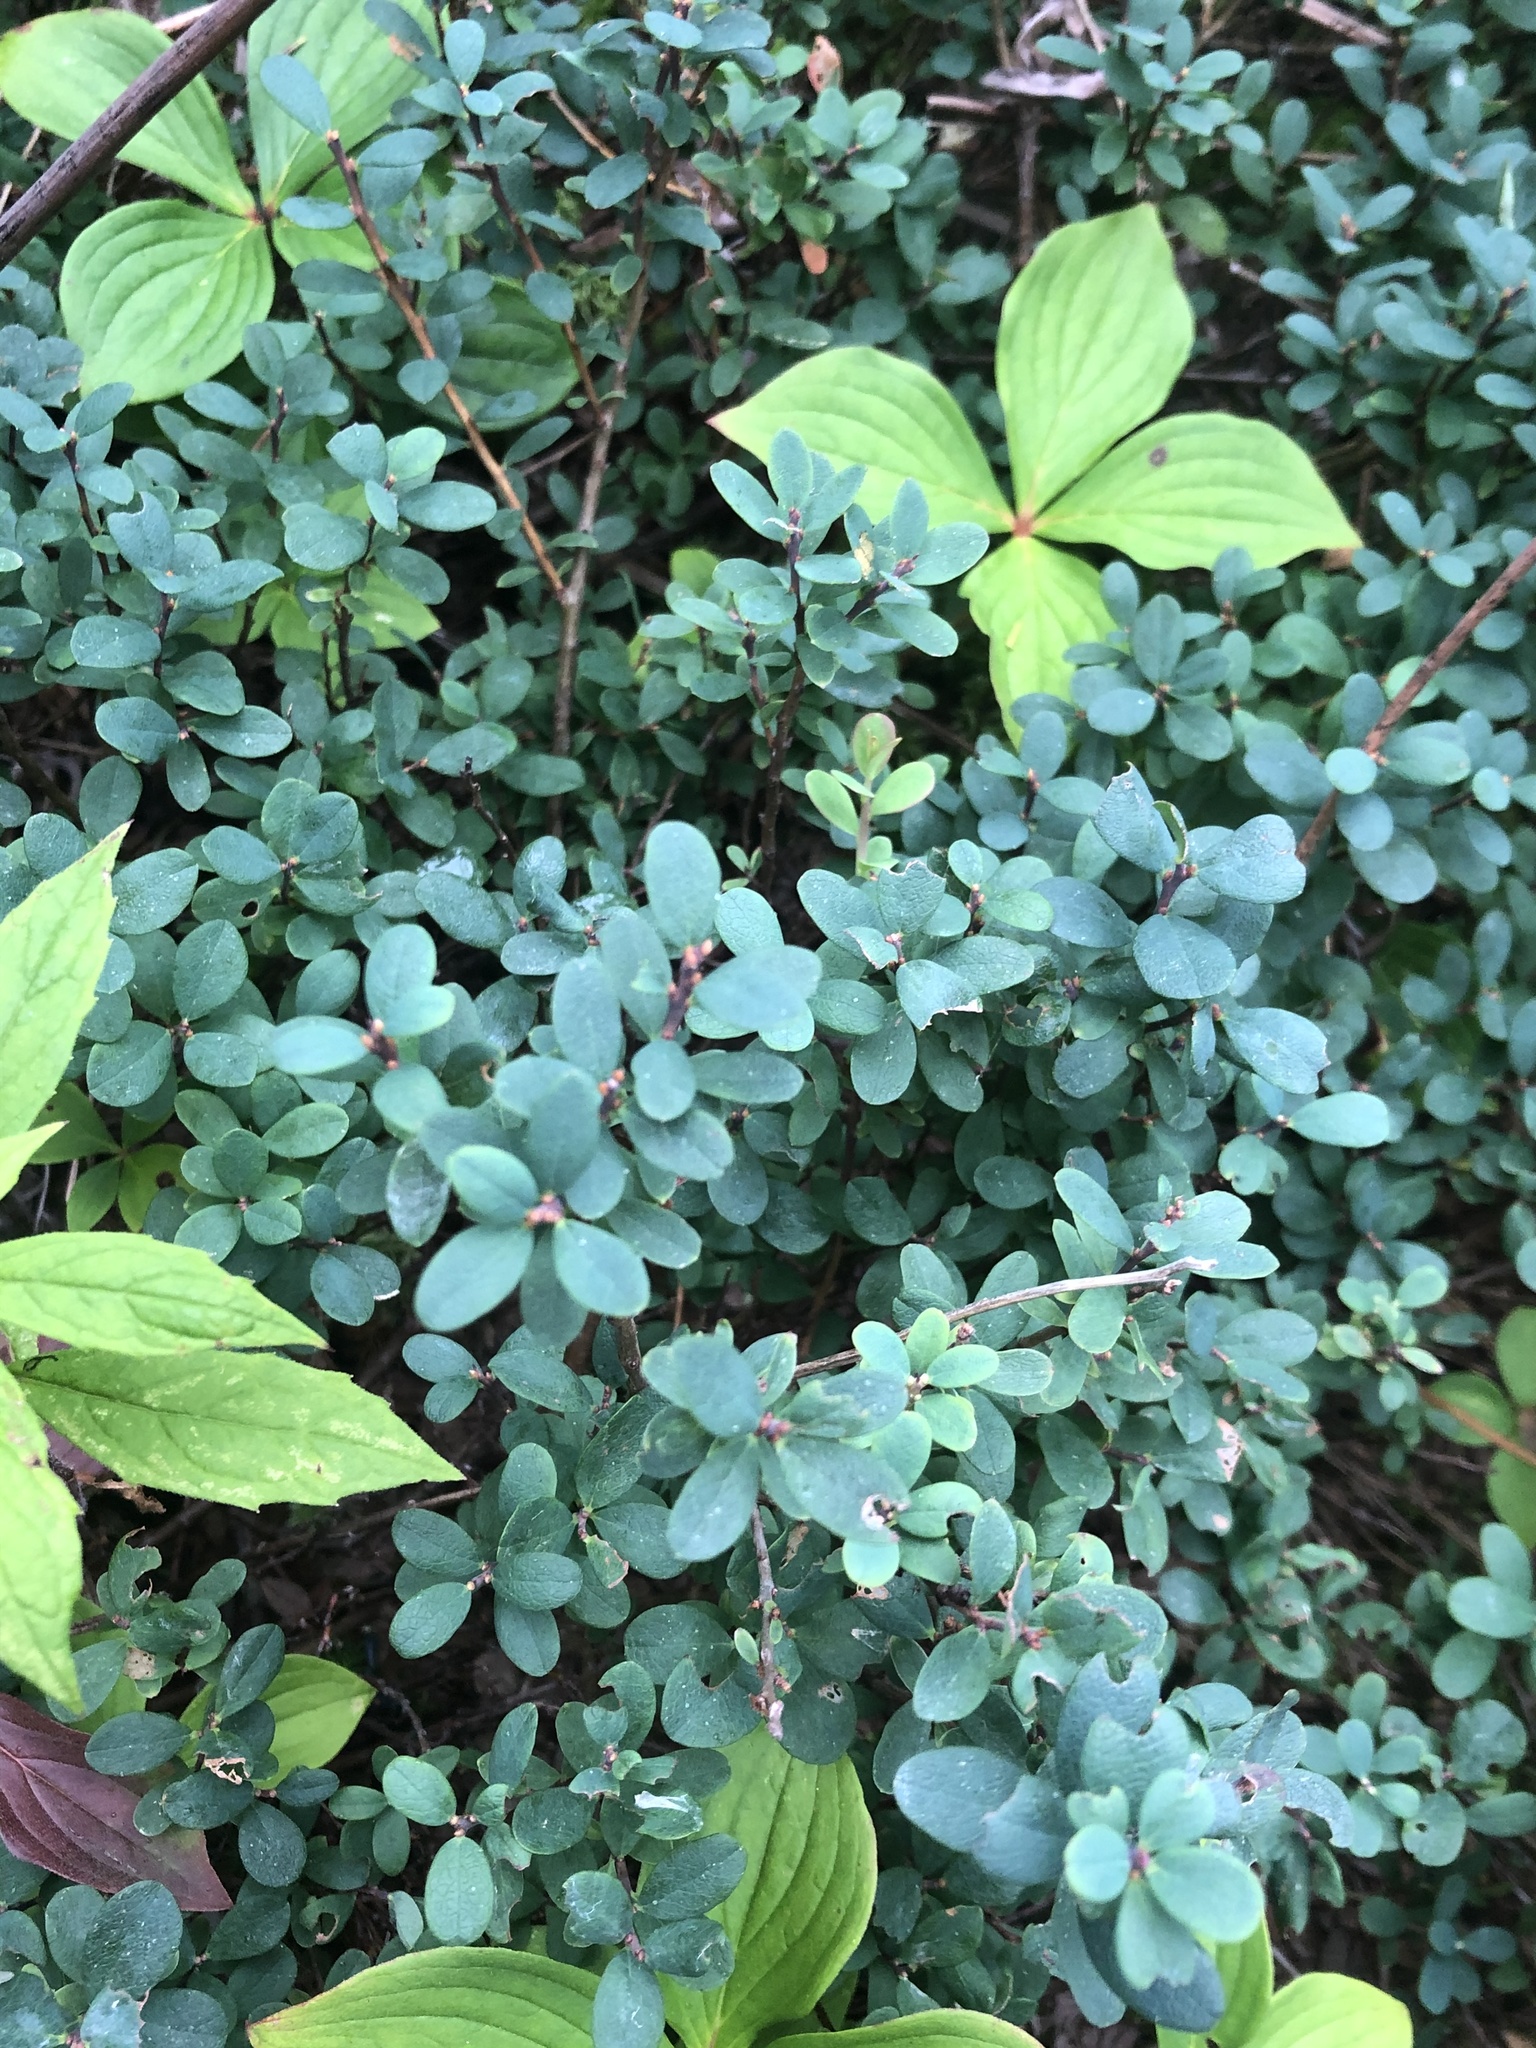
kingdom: Plantae
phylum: Tracheophyta
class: Magnoliopsida
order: Ericales
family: Ericaceae
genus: Vaccinium
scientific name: Vaccinium uliginosum
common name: Bog bilberry
